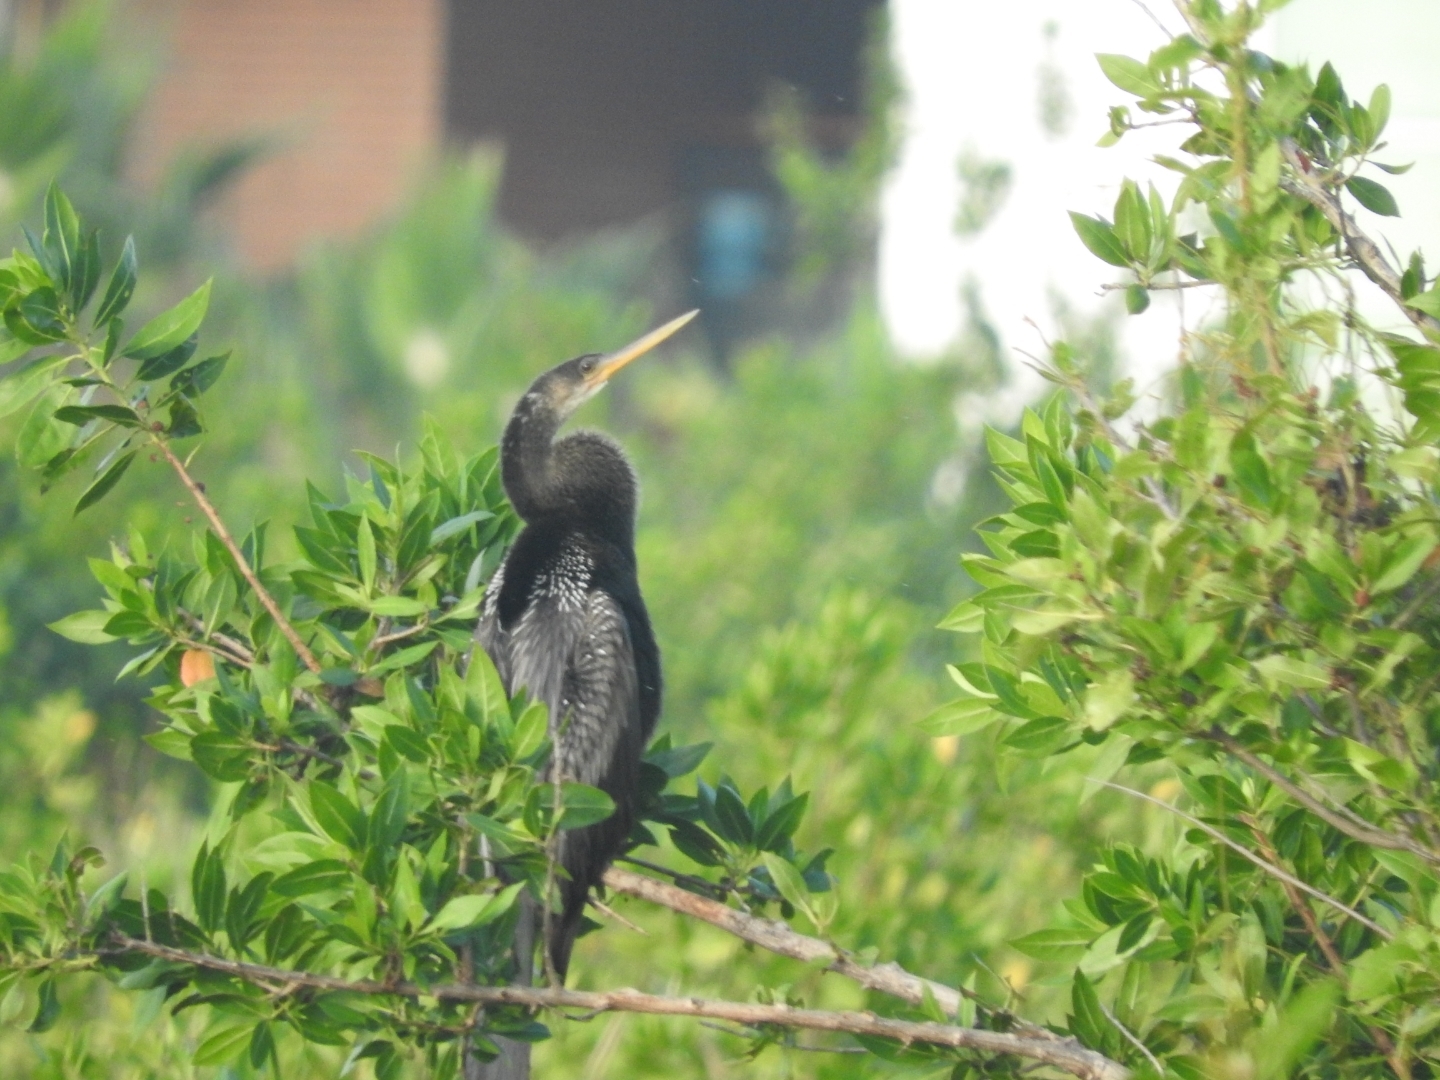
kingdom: Animalia
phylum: Chordata
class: Aves
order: Suliformes
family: Anhingidae
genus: Anhinga
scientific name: Anhinga anhinga
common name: Anhinga
